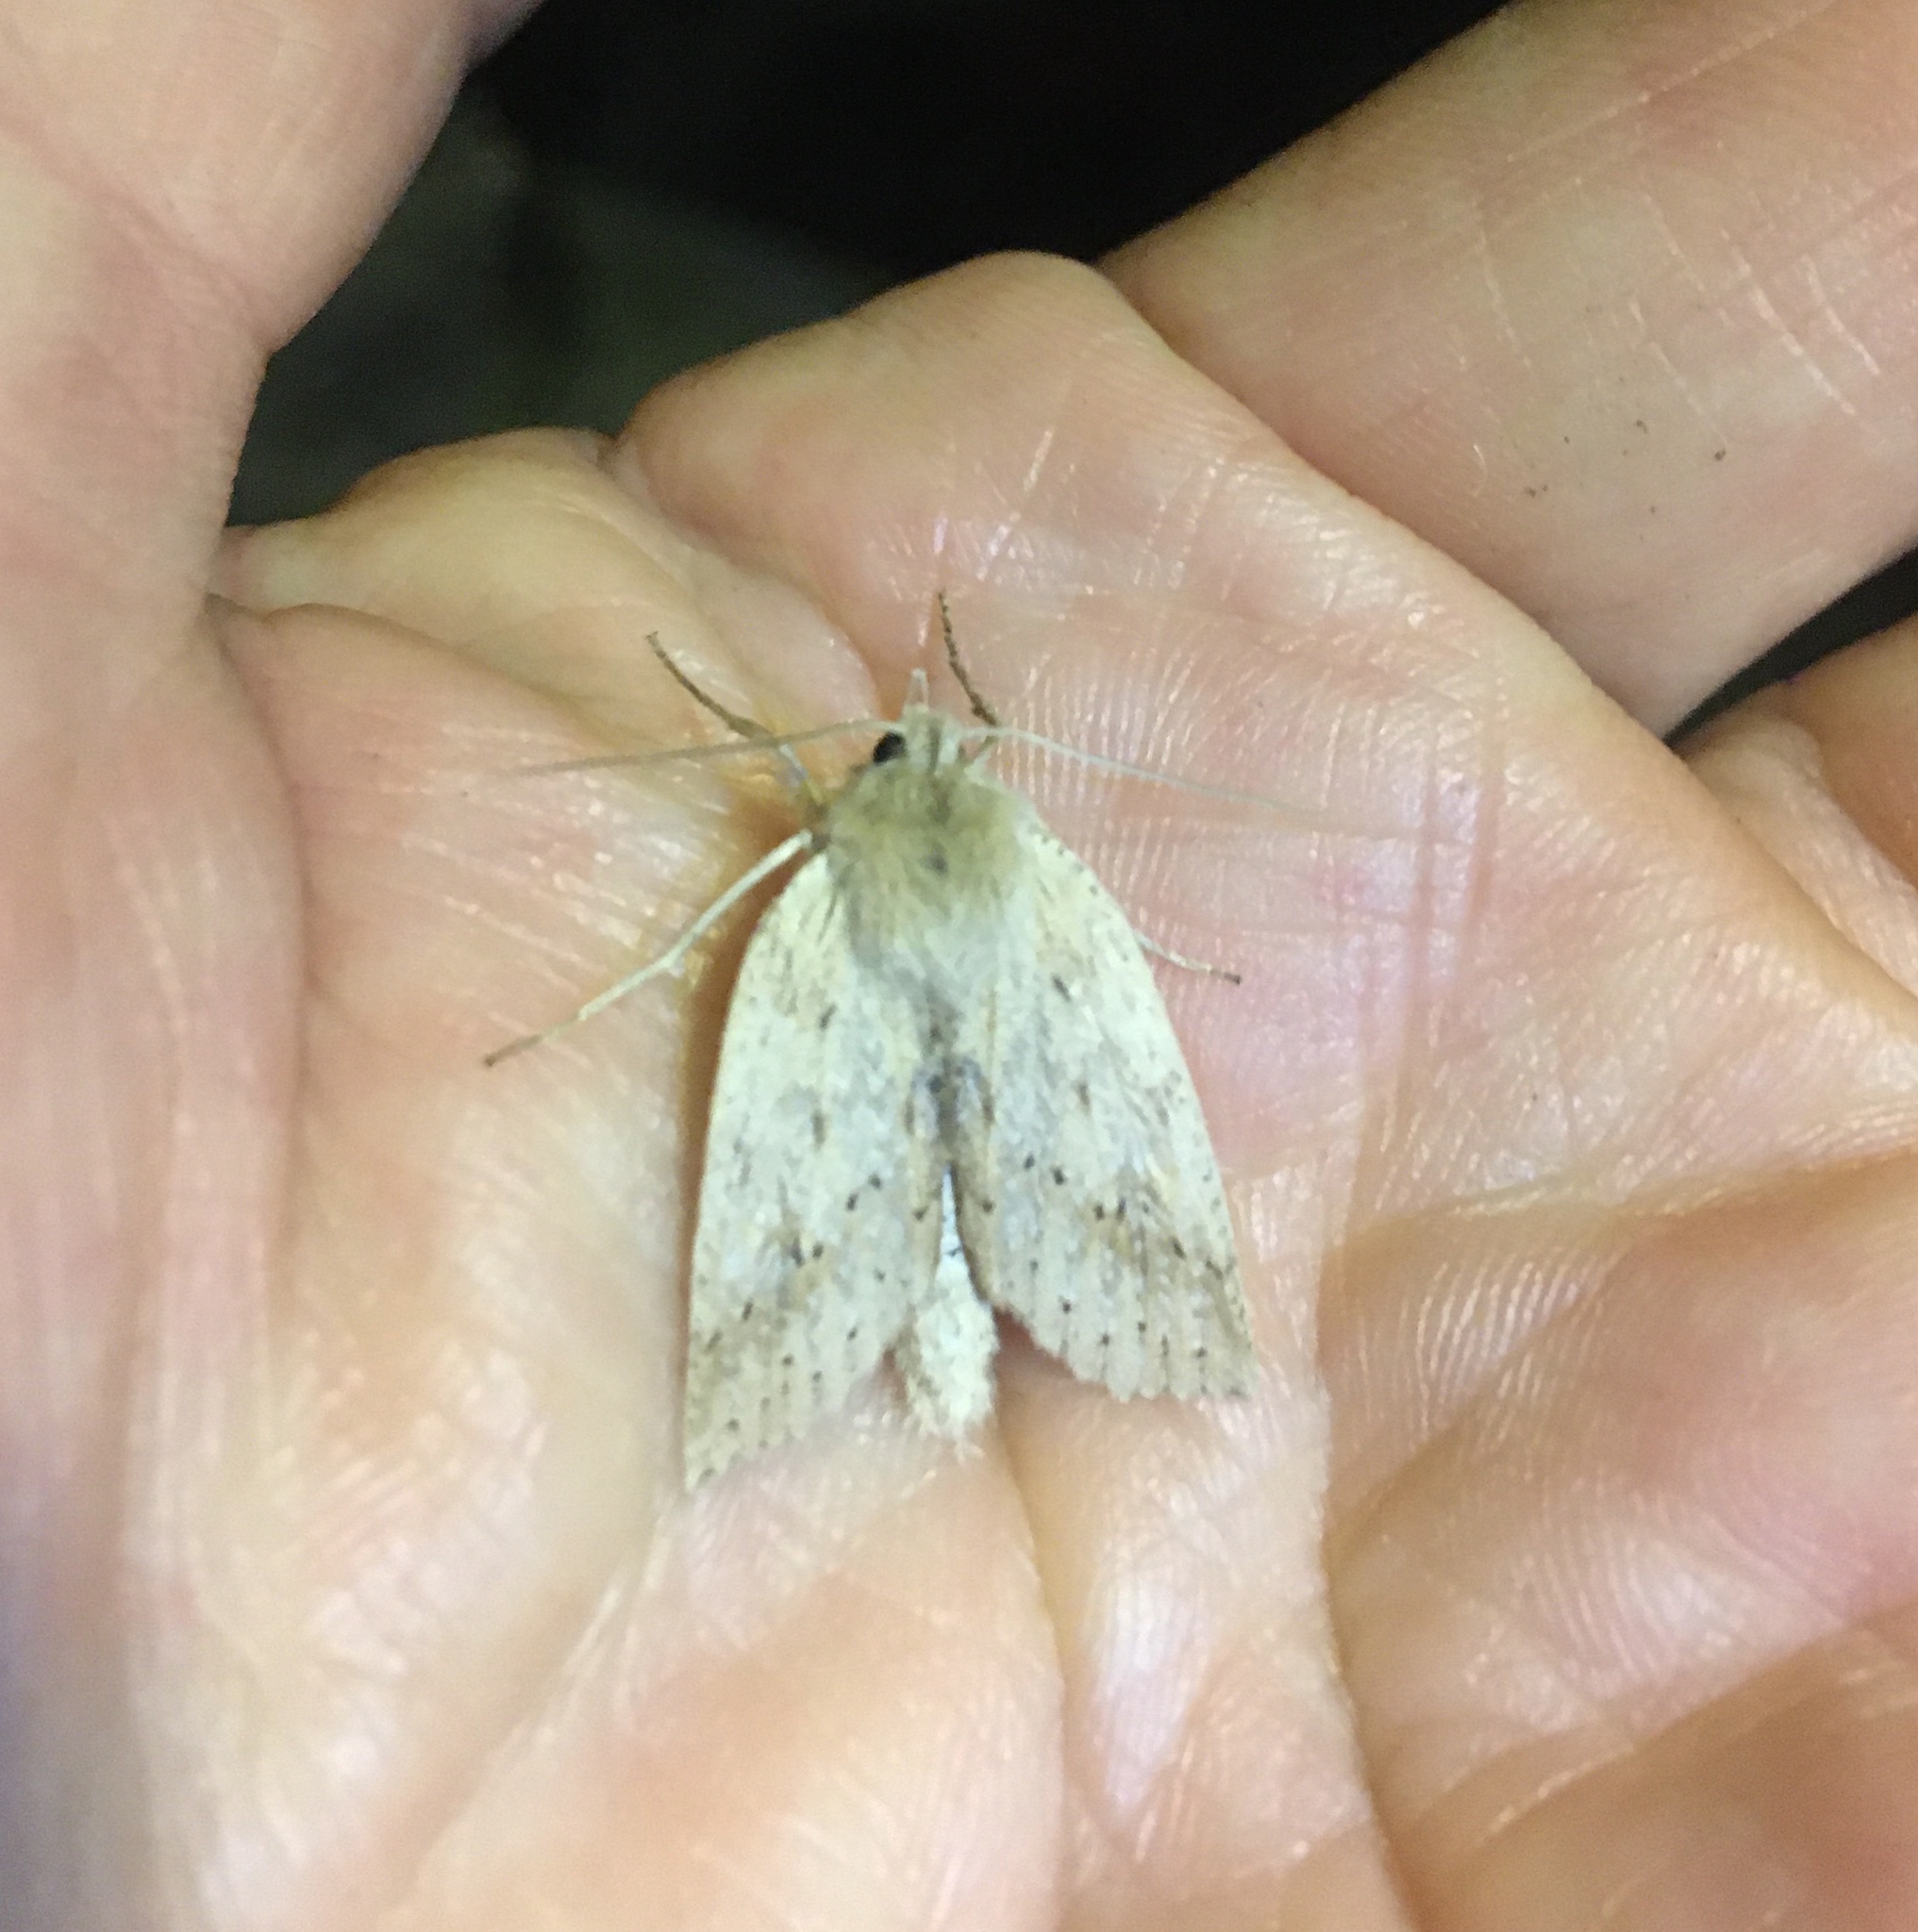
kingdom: Animalia
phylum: Arthropoda
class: Insecta
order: Lepidoptera
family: Geometridae
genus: Declana
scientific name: Declana leptomera
